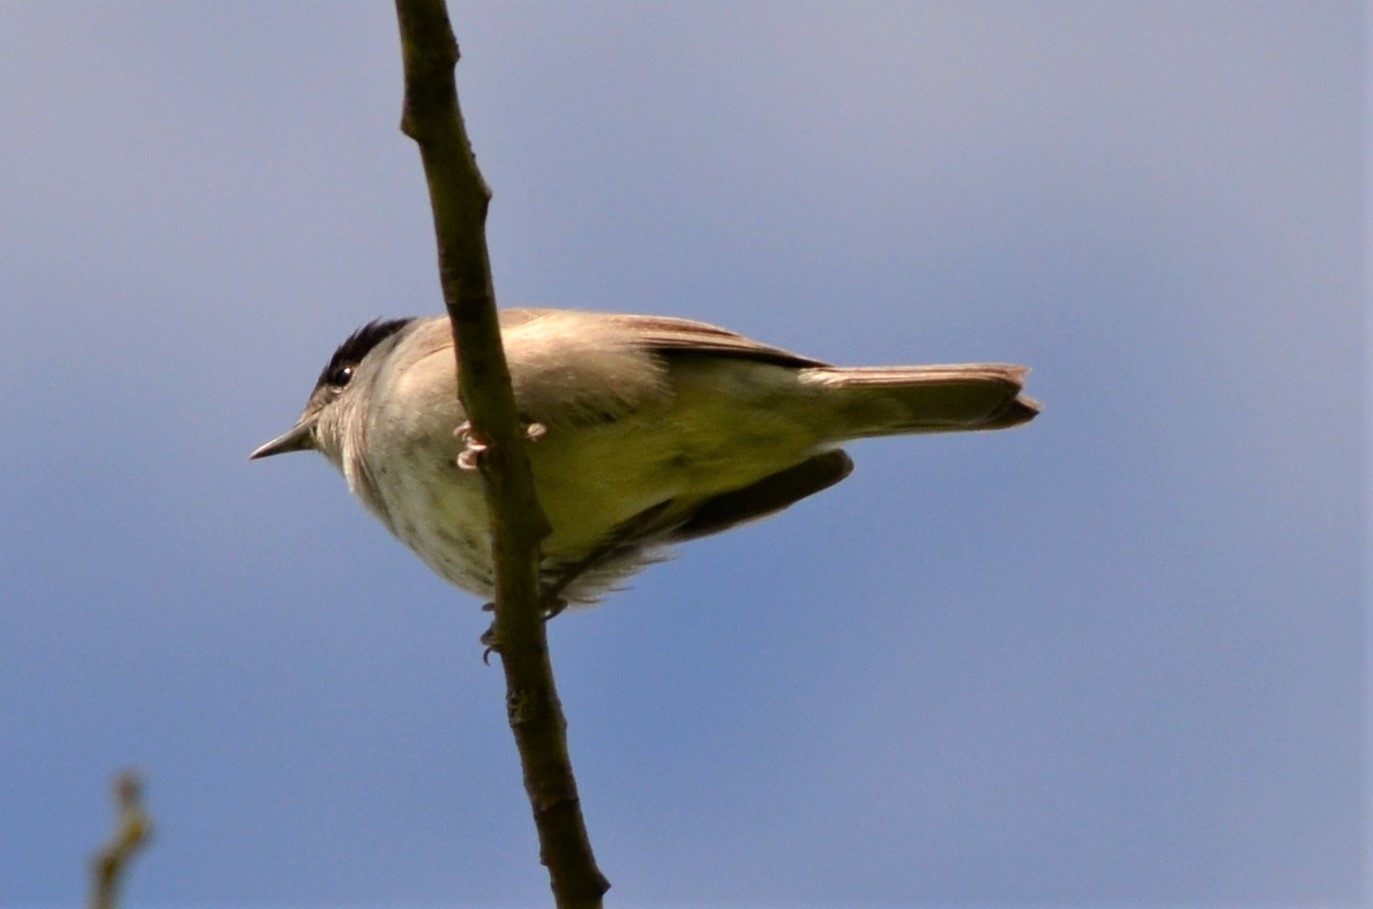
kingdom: Animalia
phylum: Chordata
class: Aves
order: Passeriformes
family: Sylviidae
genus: Sylvia
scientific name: Sylvia atricapilla
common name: Eurasian blackcap
